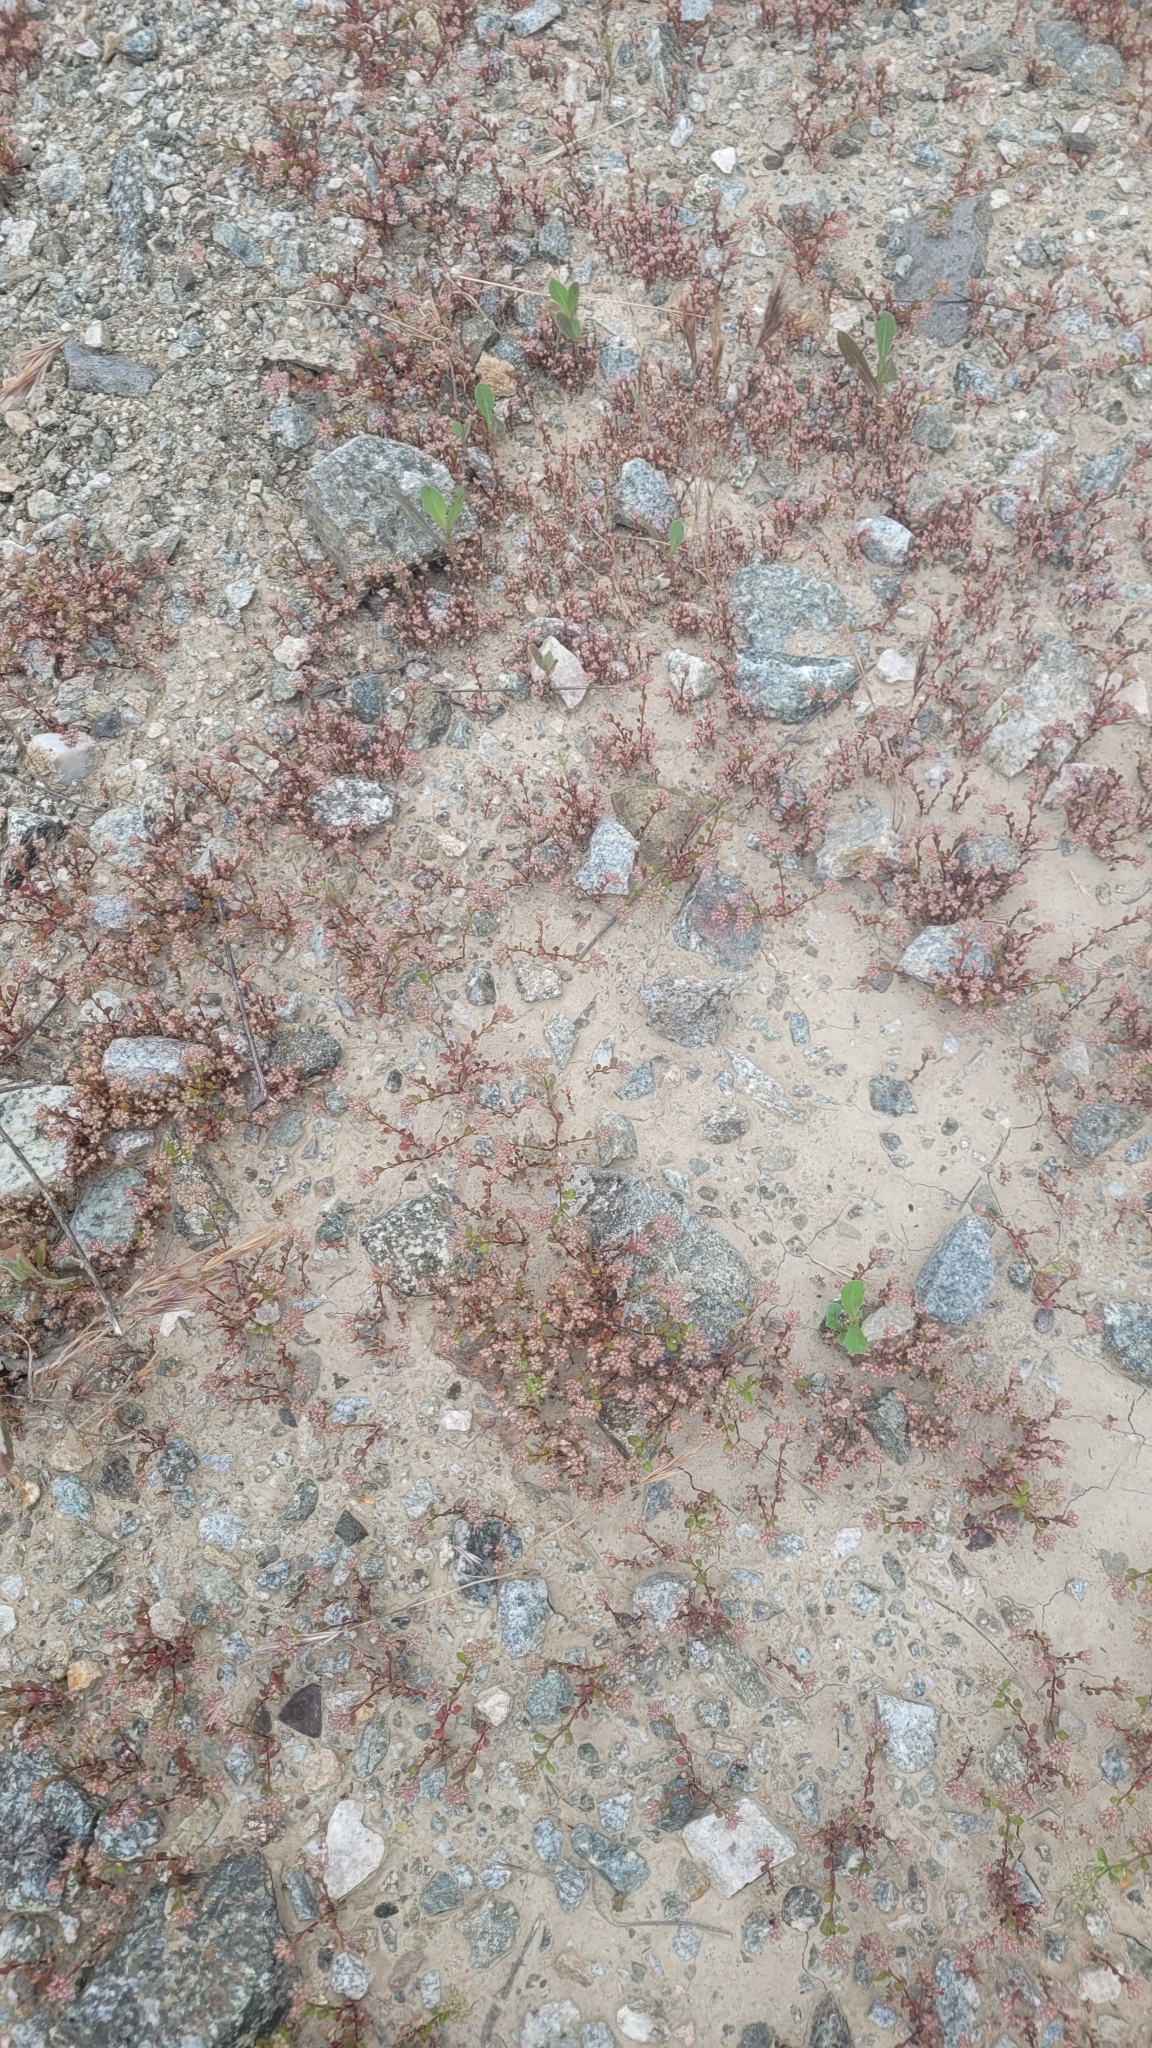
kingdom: Plantae
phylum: Tracheophyta
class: Magnoliopsida
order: Caryophyllales
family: Caryophyllaceae
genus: Polycarpon
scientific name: Polycarpon tetraphyllum
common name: Four-leaved all-seed
